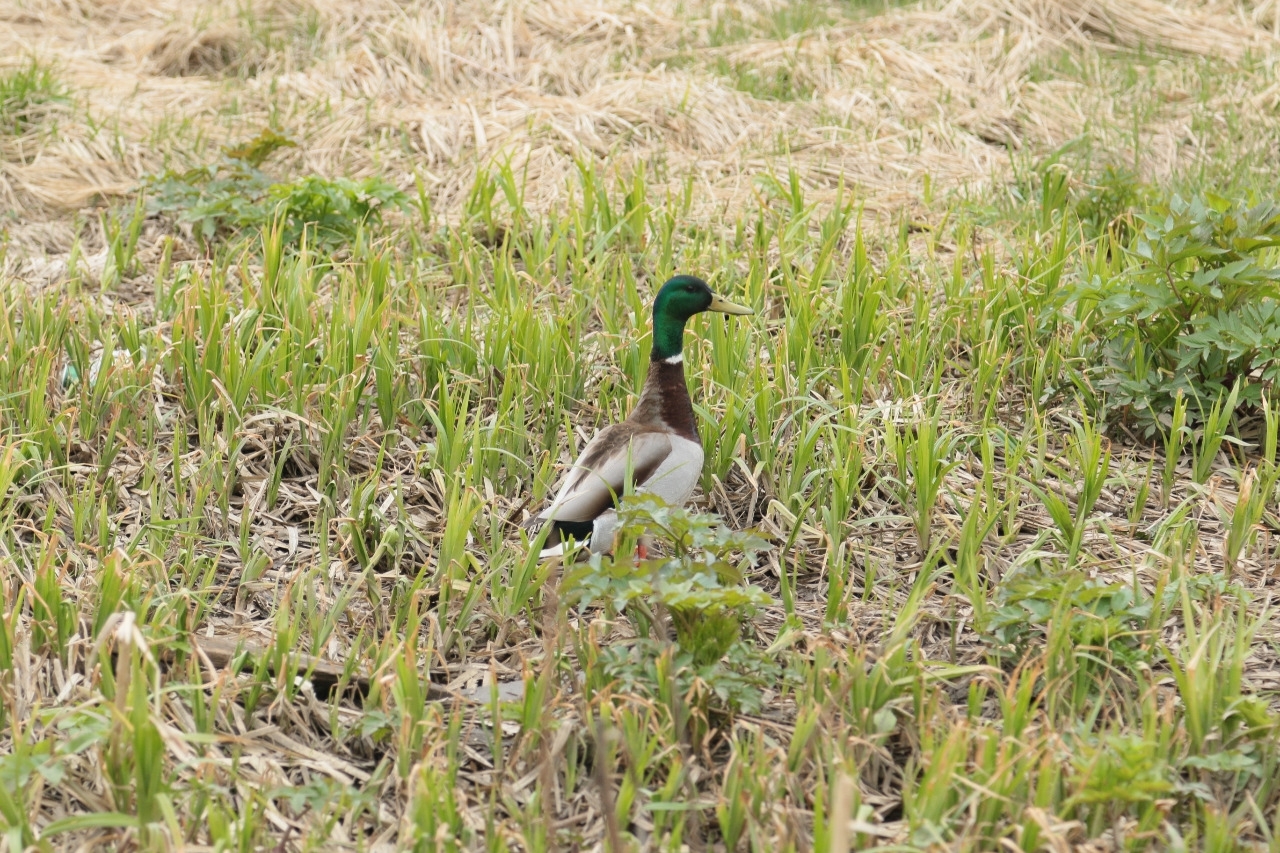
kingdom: Animalia
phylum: Chordata
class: Aves
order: Anseriformes
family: Anatidae
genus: Anas
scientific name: Anas platyrhynchos
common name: Mallard
